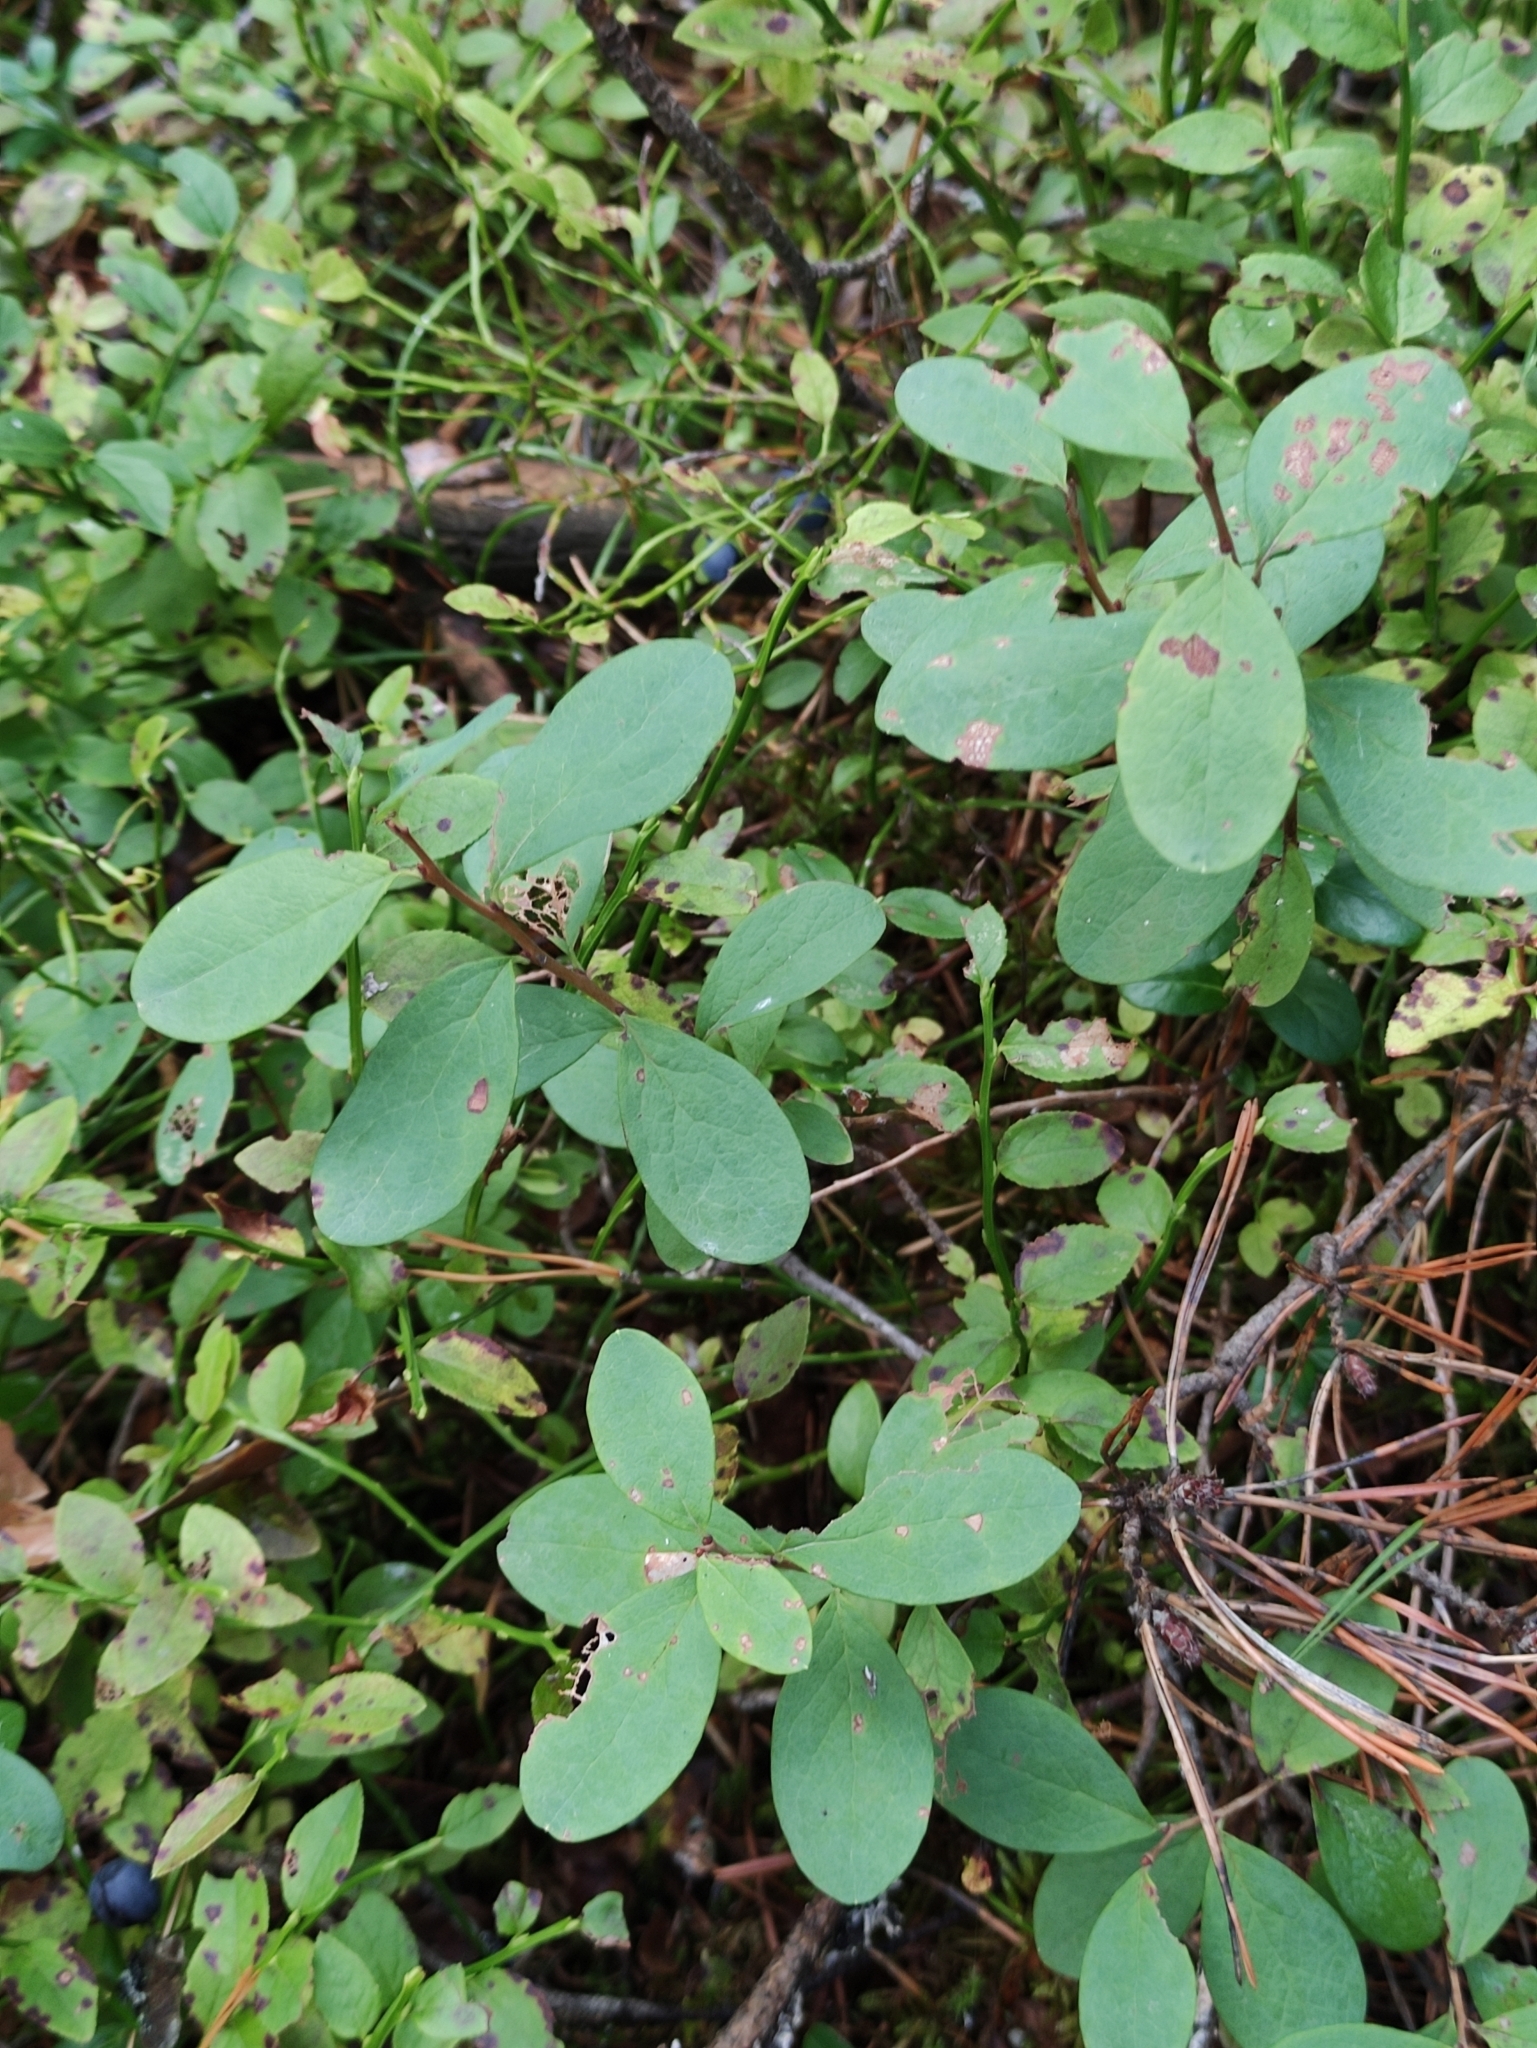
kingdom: Plantae
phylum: Tracheophyta
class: Magnoliopsida
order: Ericales
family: Ericaceae
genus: Vaccinium
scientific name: Vaccinium uliginosum
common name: Bog bilberry
